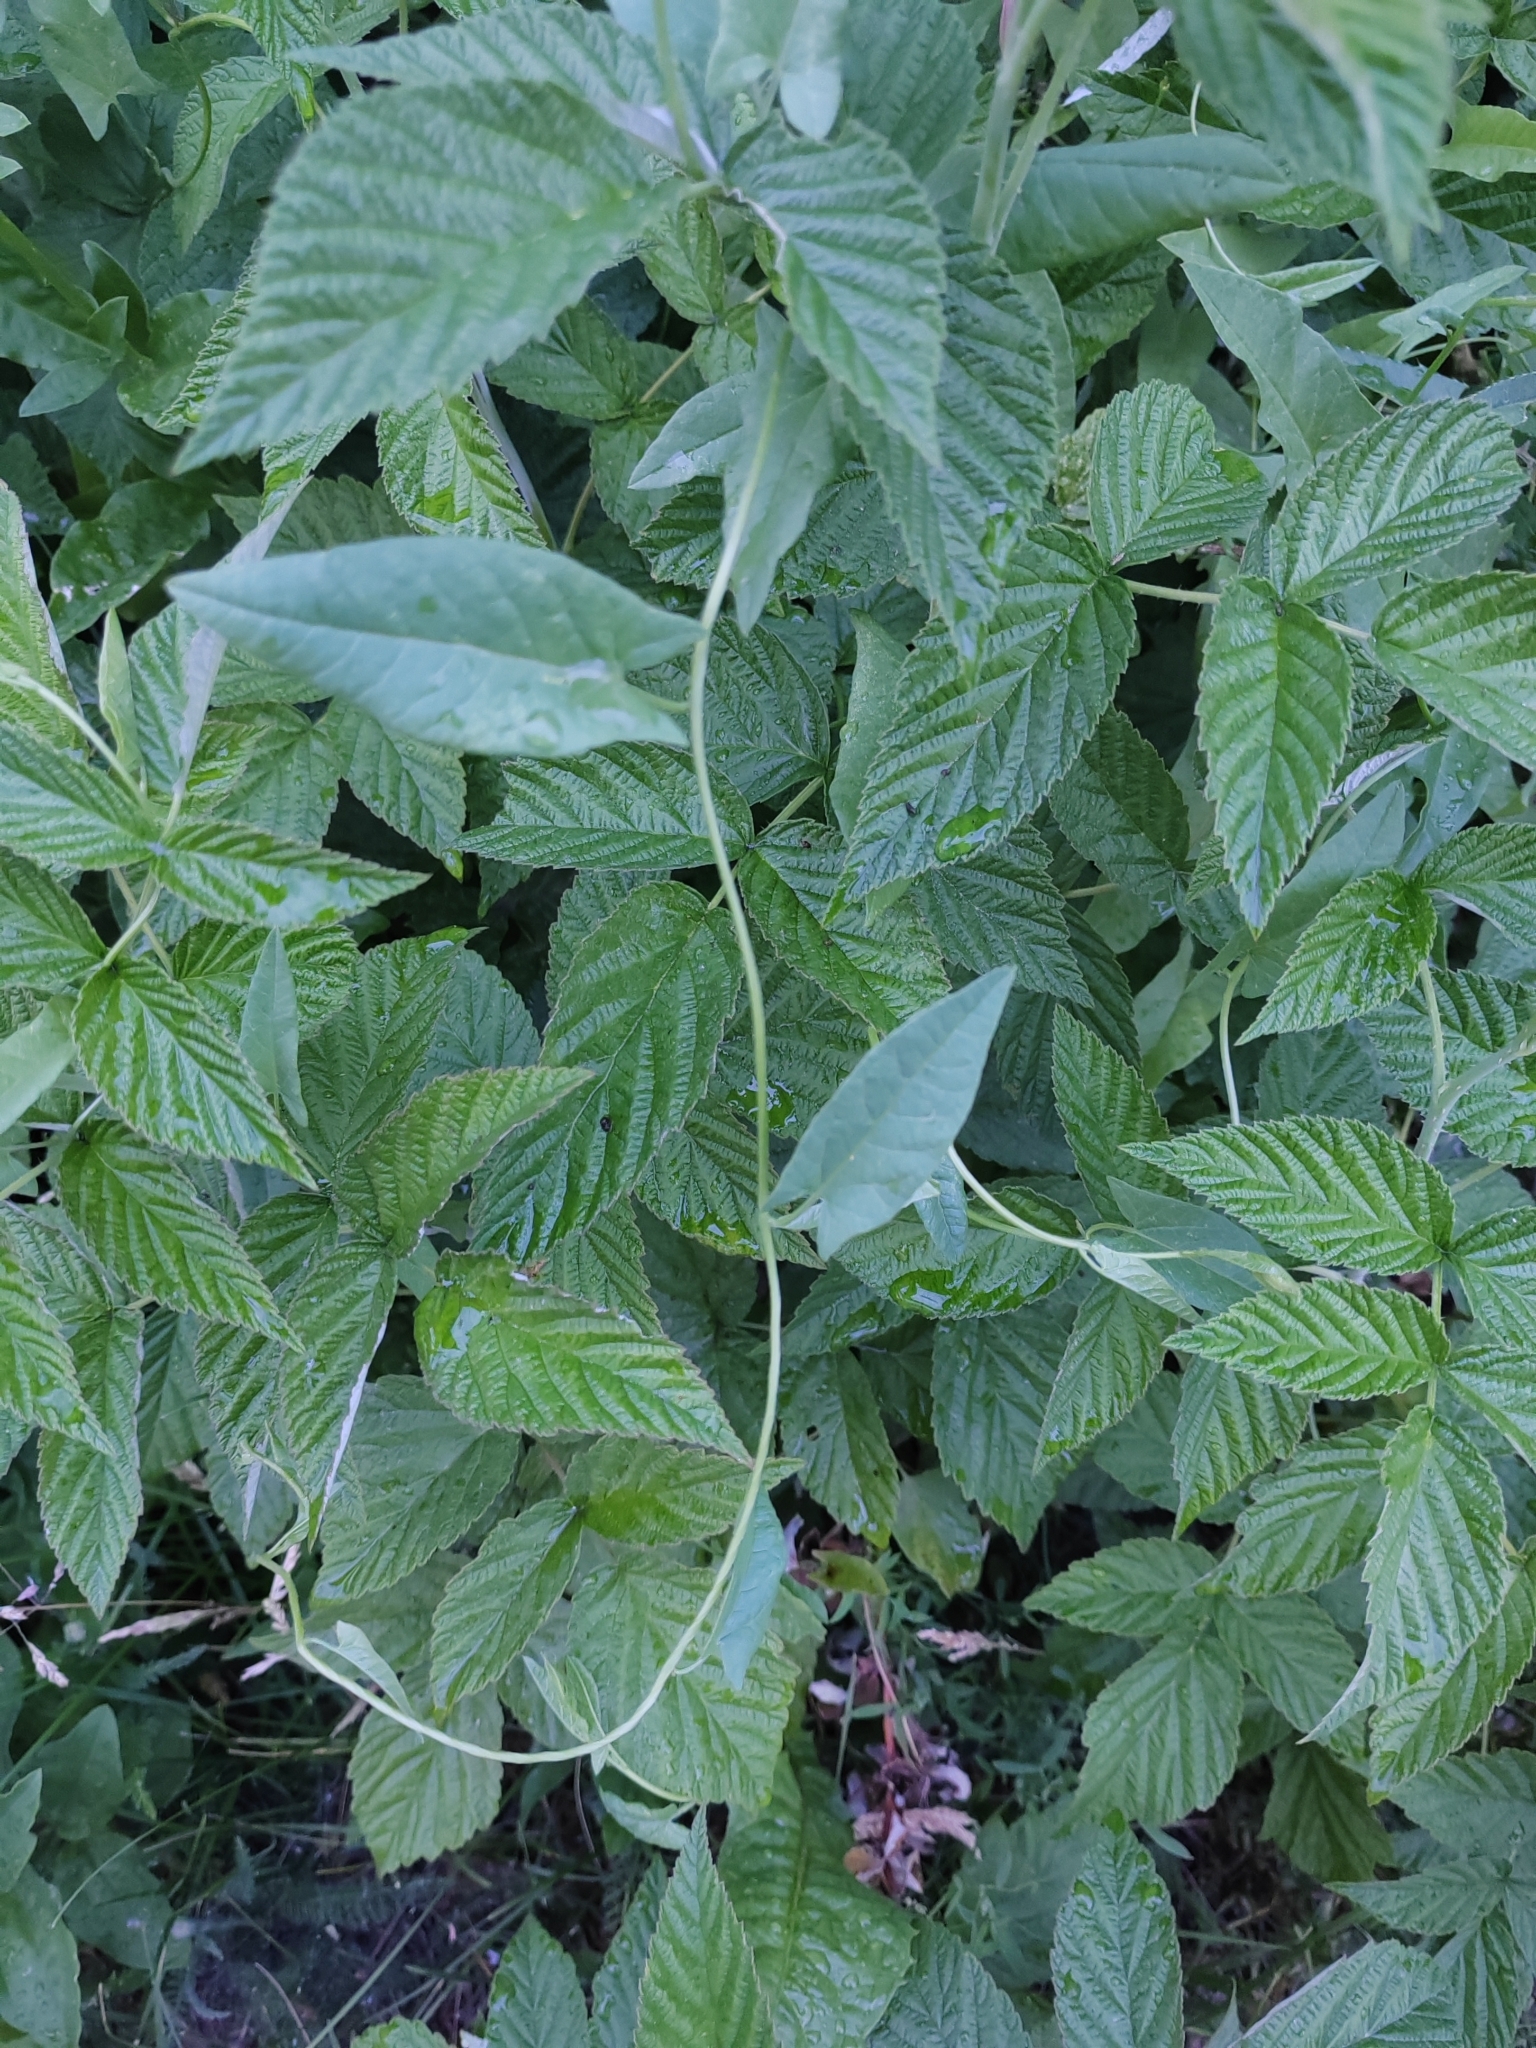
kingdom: Plantae
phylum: Tracheophyta
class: Magnoliopsida
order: Solanales
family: Convolvulaceae
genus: Convolvulus
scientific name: Convolvulus arvensis
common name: Field bindweed
